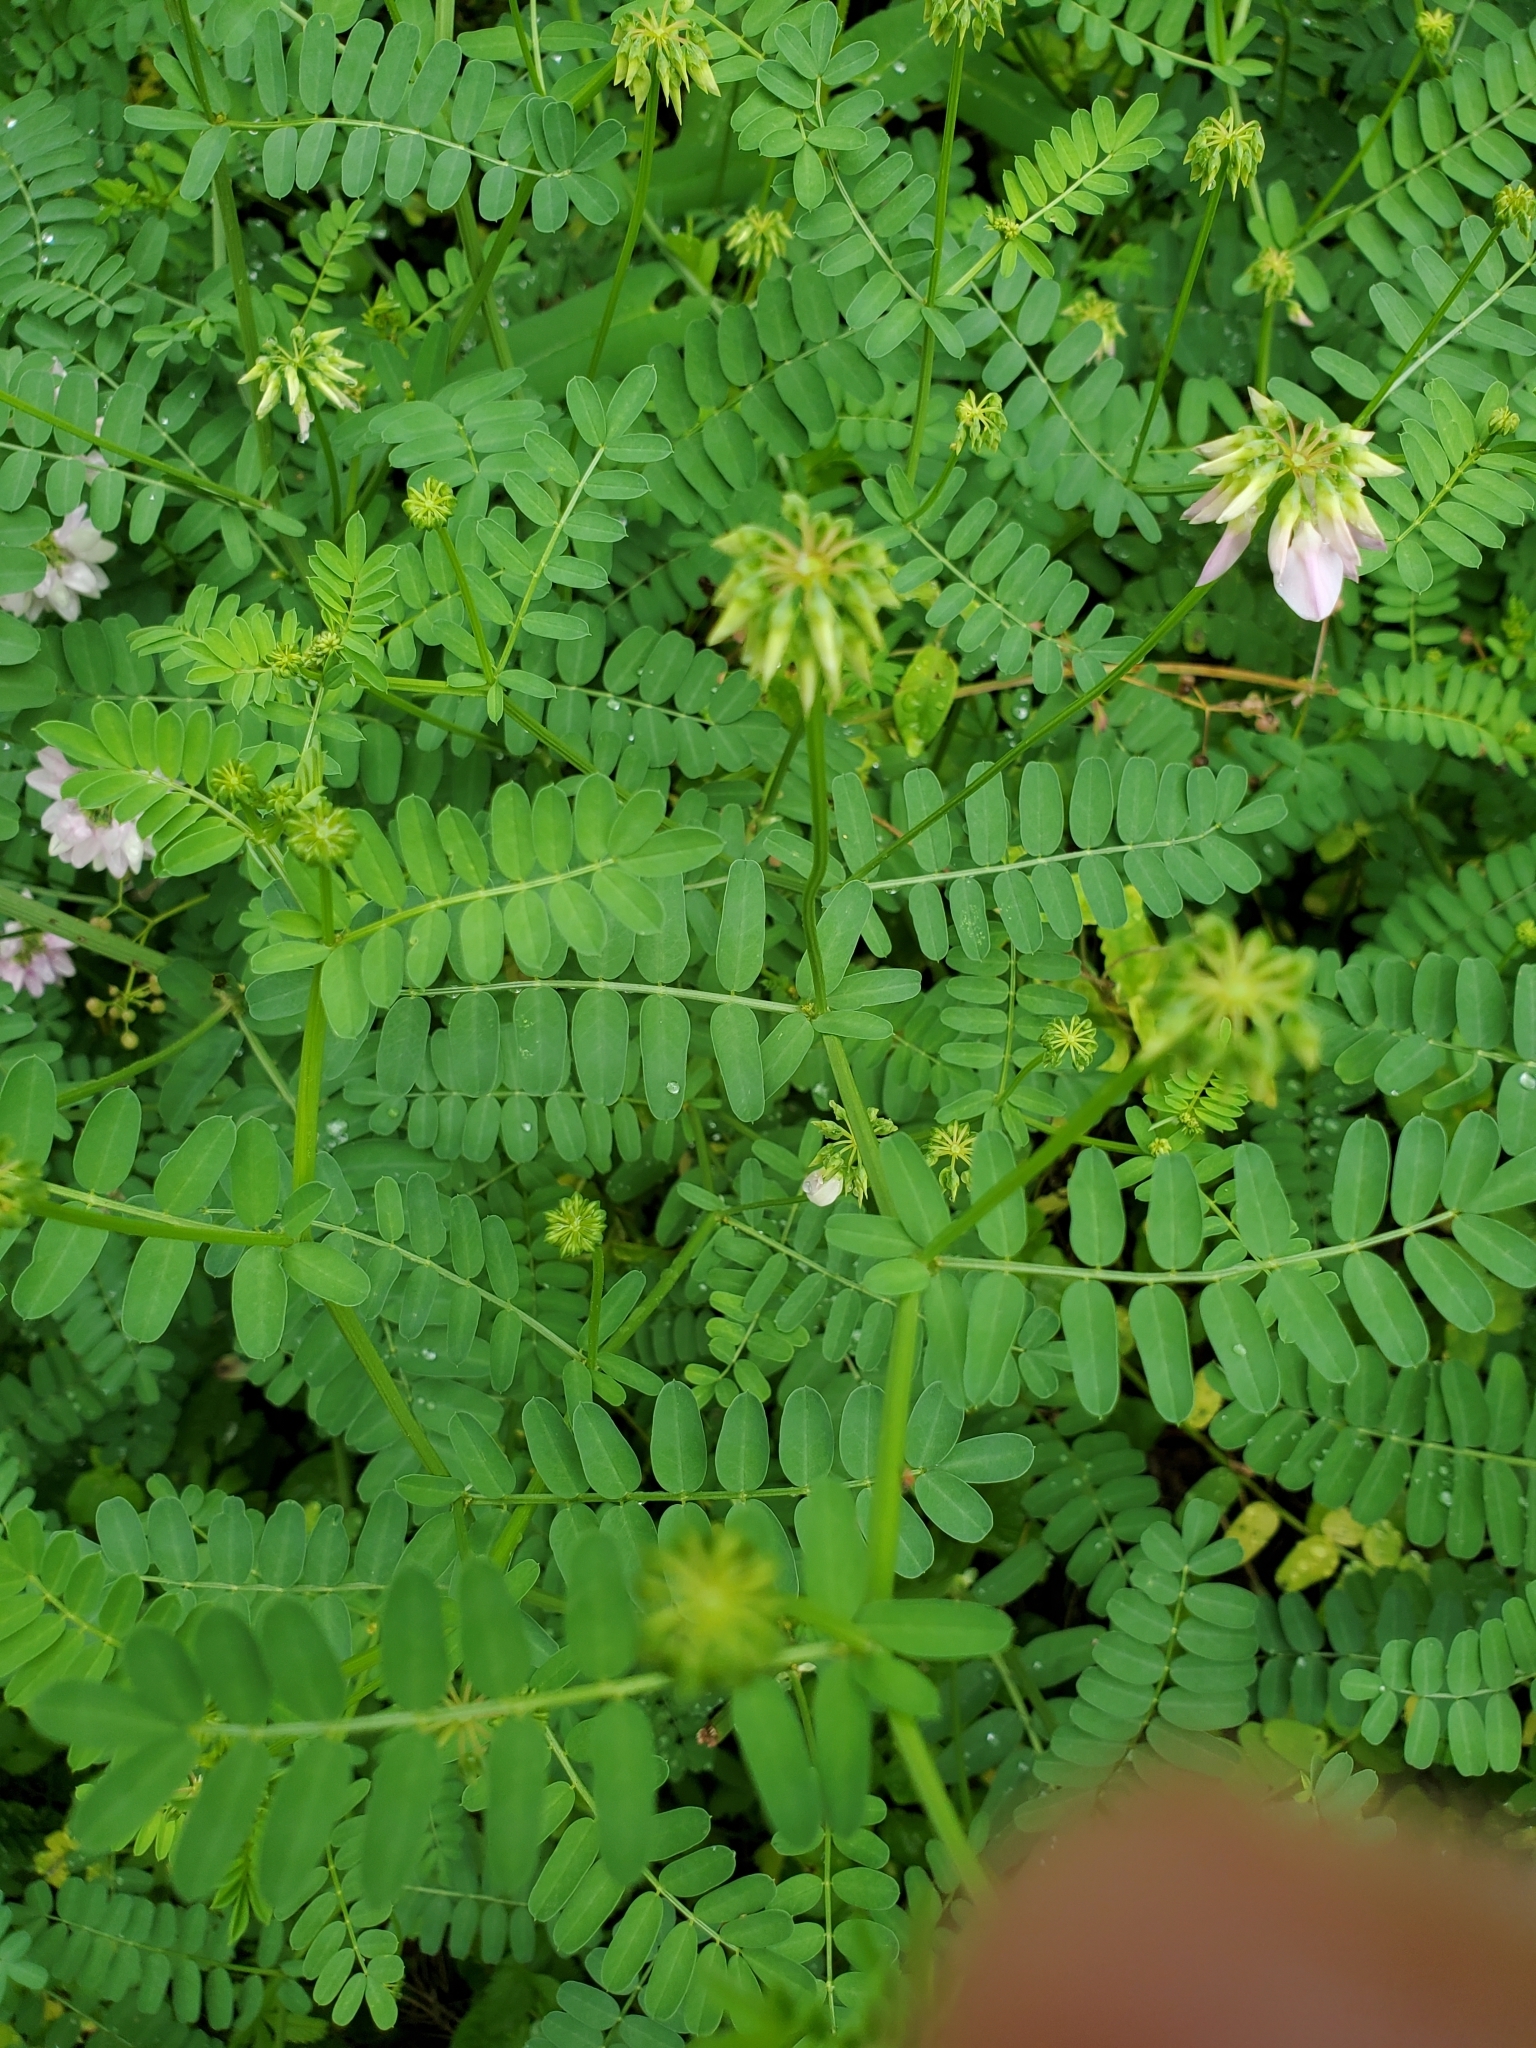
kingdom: Plantae
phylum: Tracheophyta
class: Magnoliopsida
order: Fabales
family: Fabaceae
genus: Coronilla
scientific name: Coronilla varia
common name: Crownvetch
